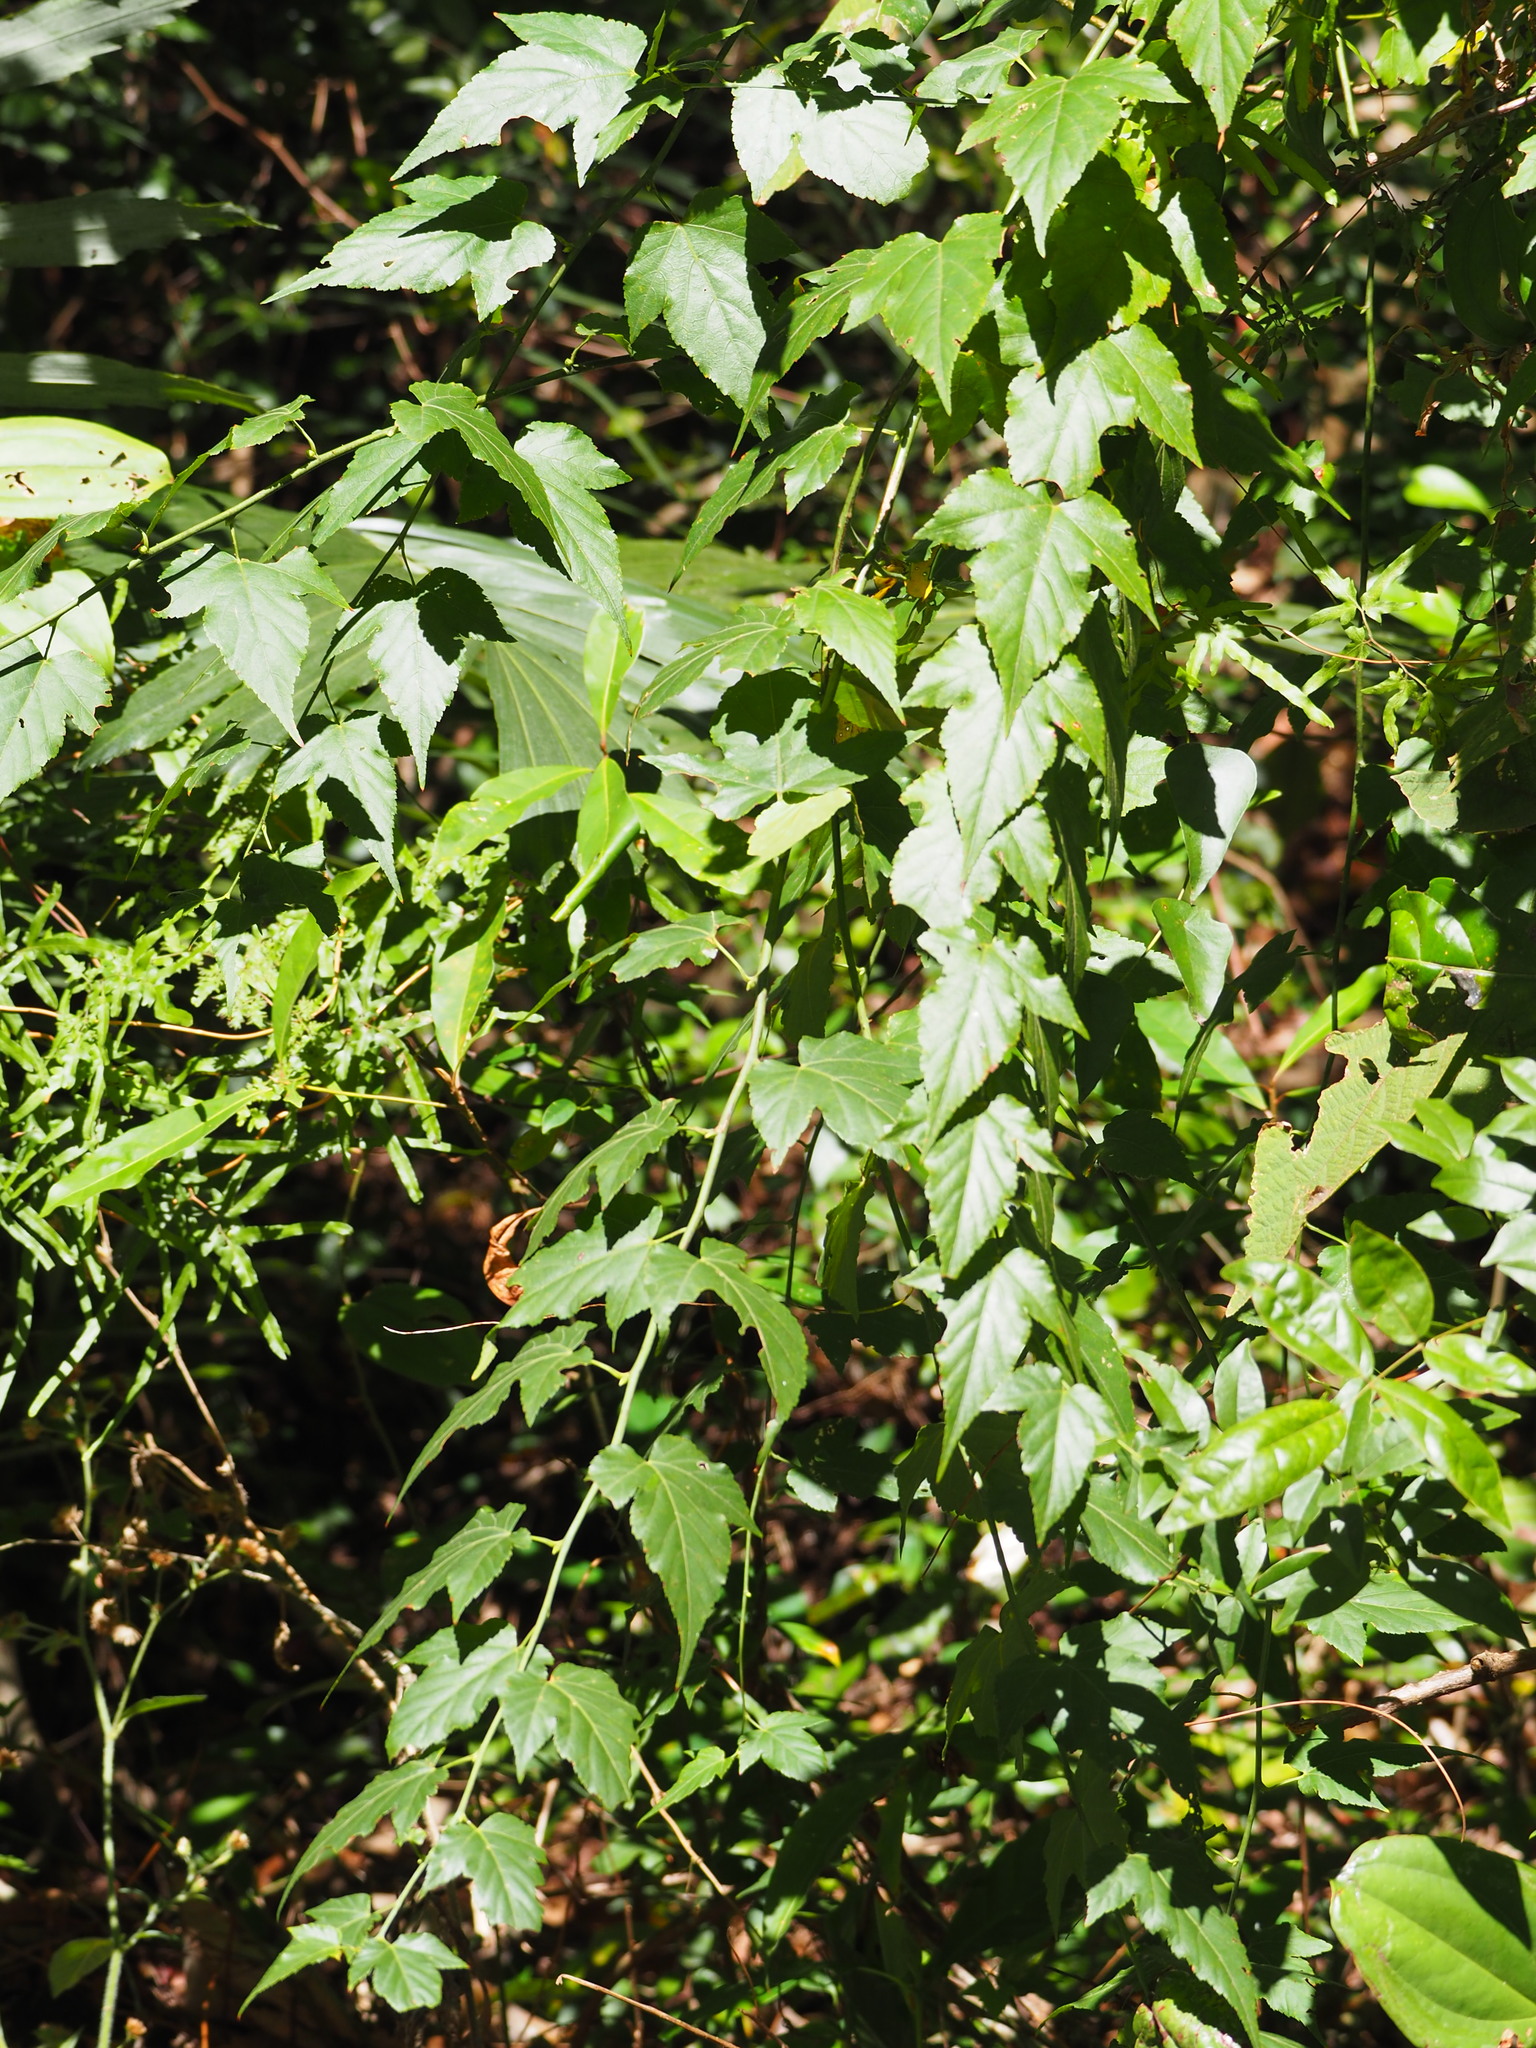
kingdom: Plantae
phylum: Tracheophyta
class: Magnoliopsida
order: Rosales
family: Rosaceae
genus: Rubus
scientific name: Rubus corchorifolius
